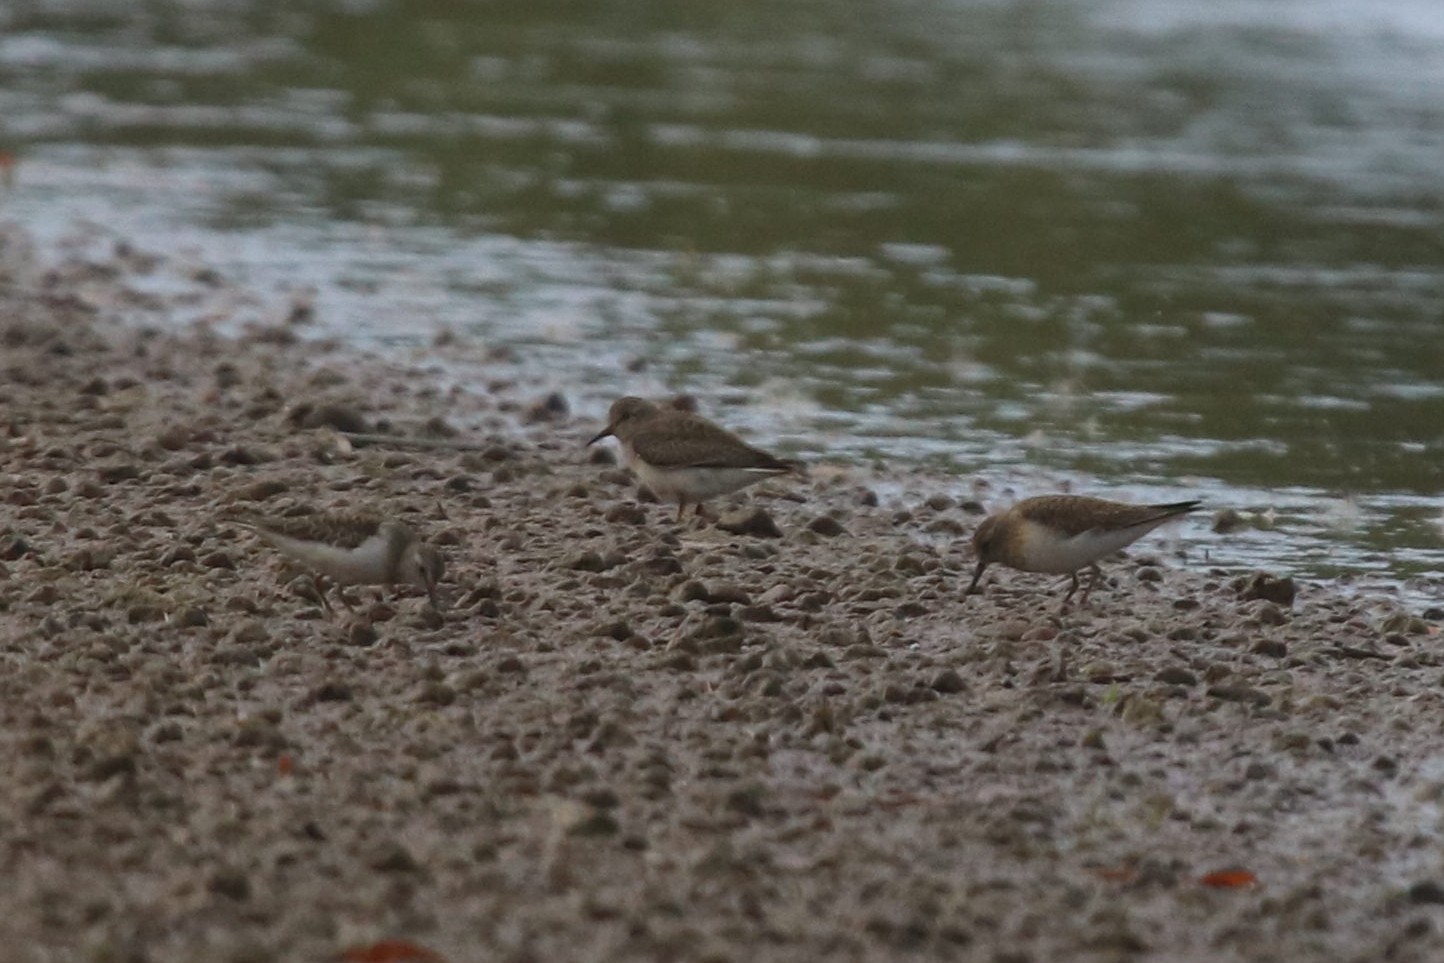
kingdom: Animalia
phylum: Chordata
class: Aves
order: Charadriiformes
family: Scolopacidae
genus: Calidris
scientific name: Calidris temminckii
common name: Temminck's stint
